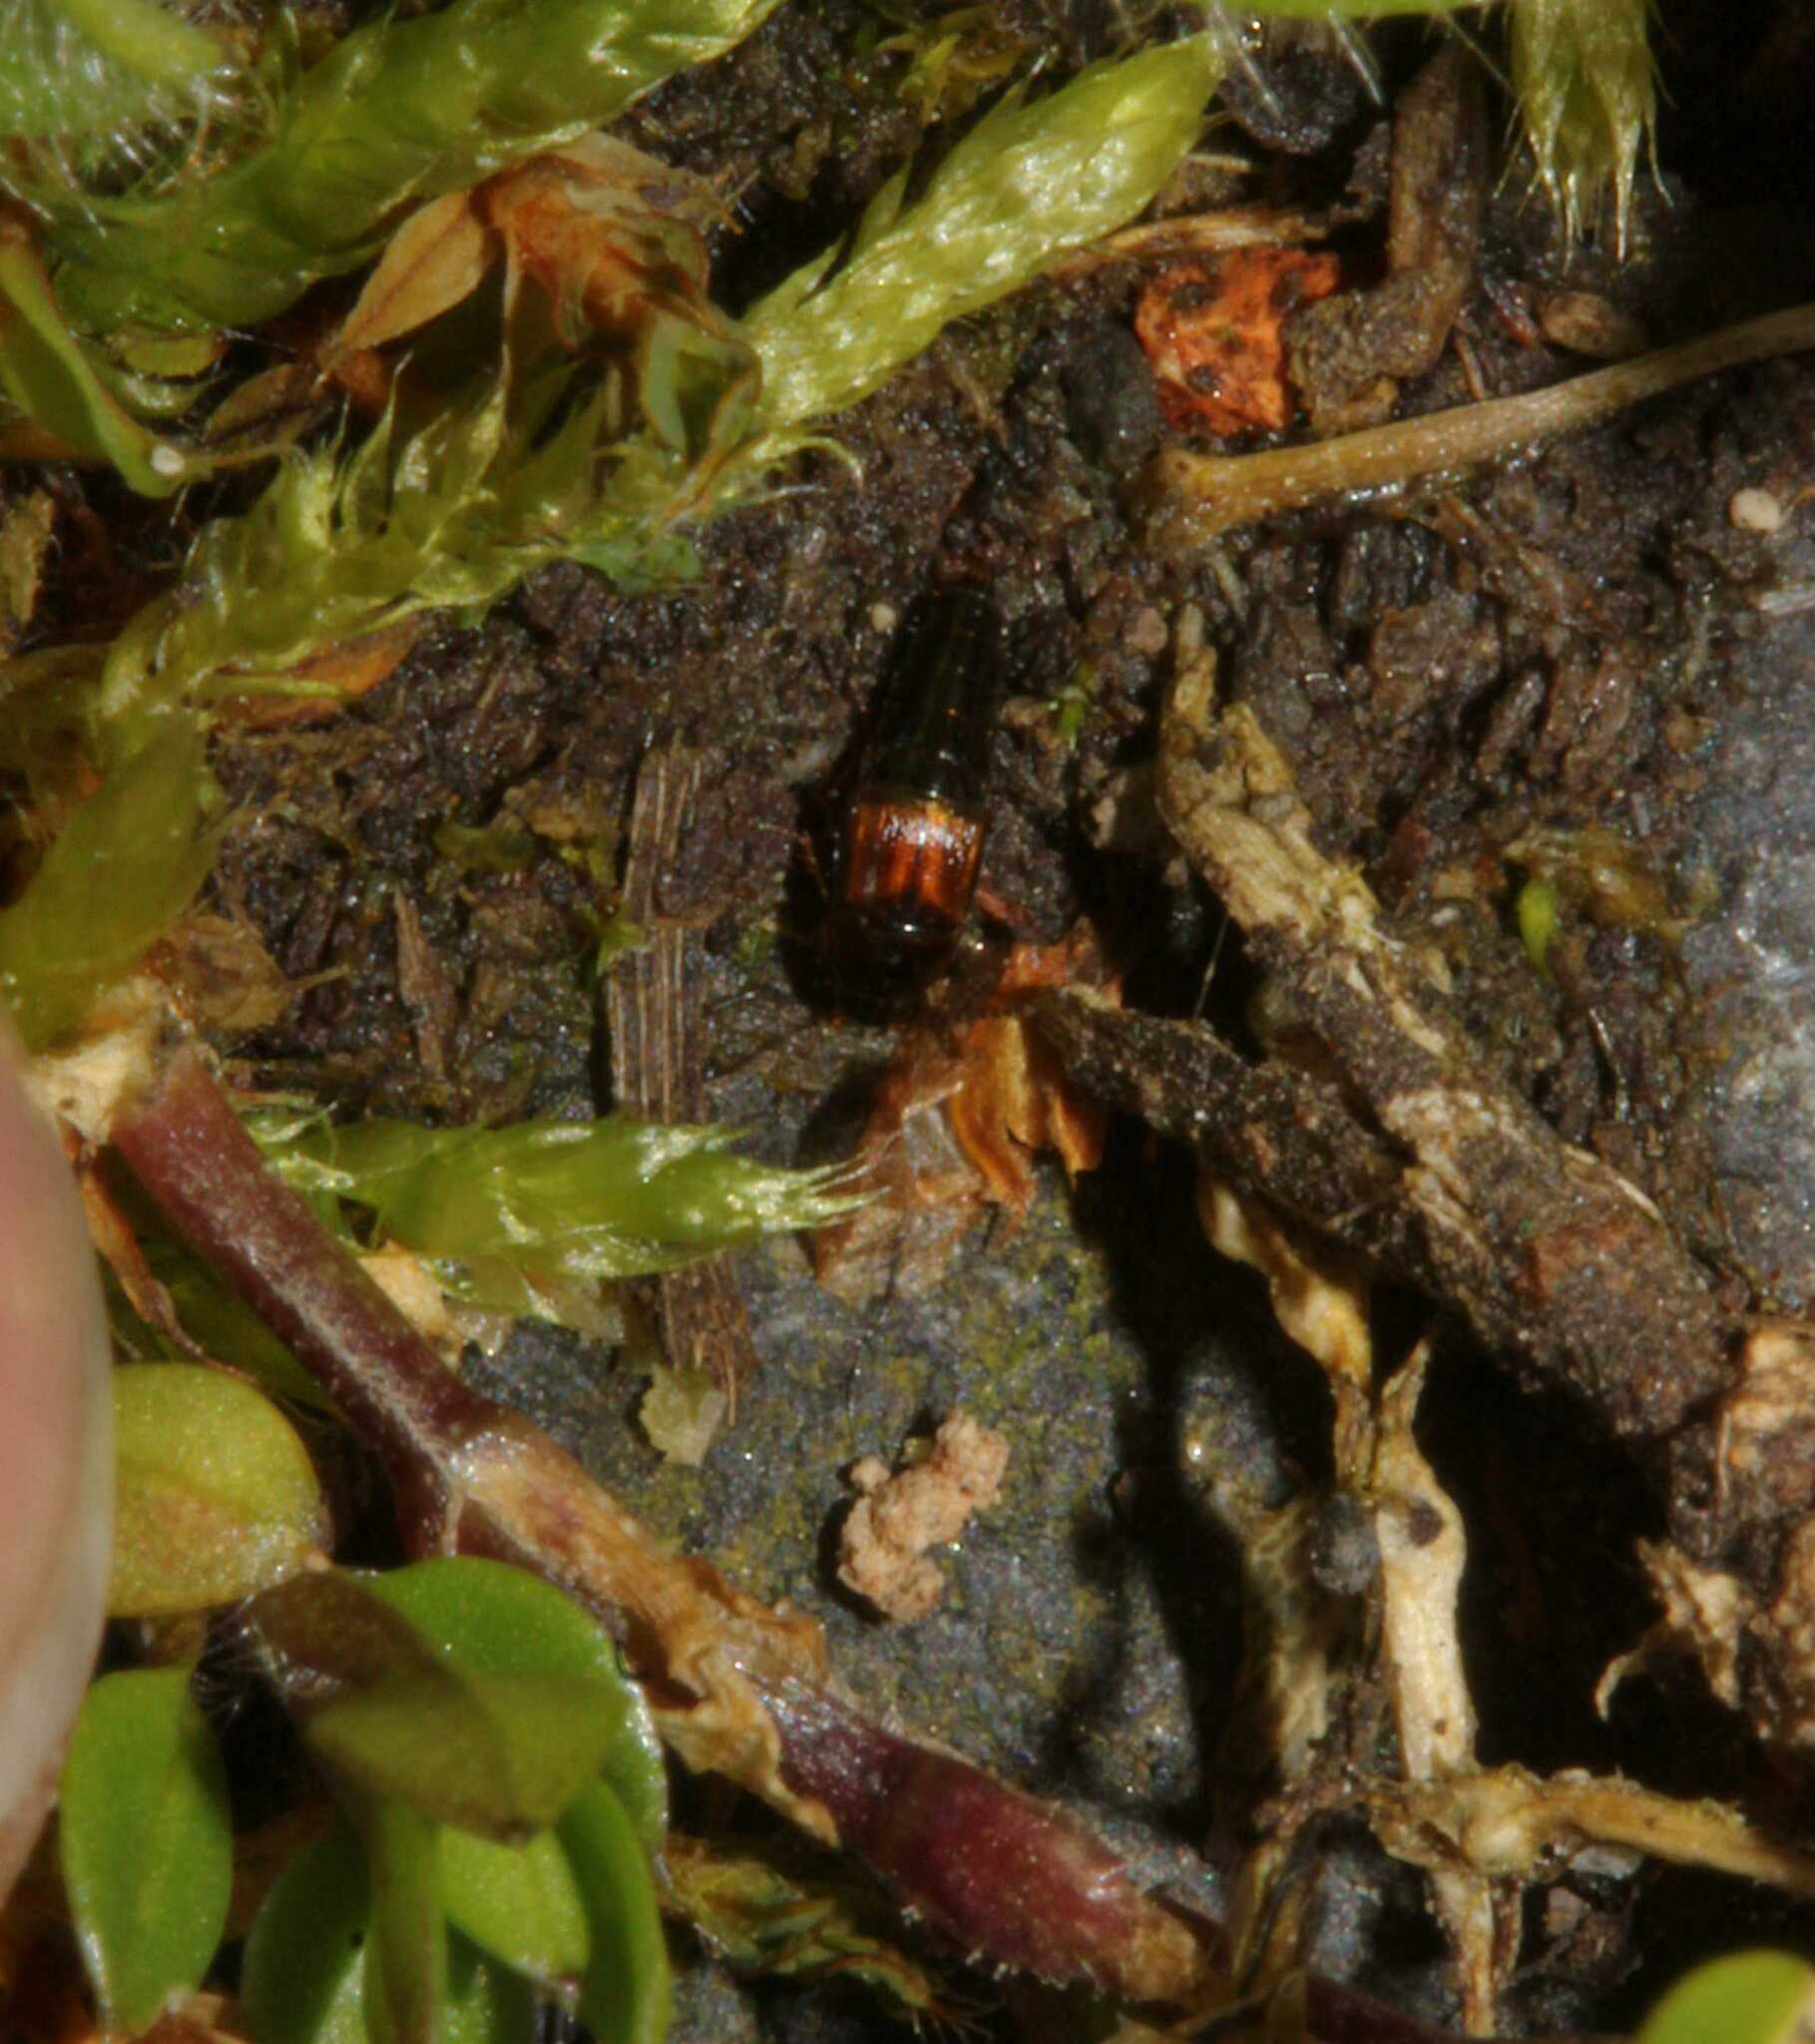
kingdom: Animalia
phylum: Arthropoda
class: Insecta
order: Coleoptera
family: Staphylinidae
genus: Tachyporus
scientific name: Tachyporus
